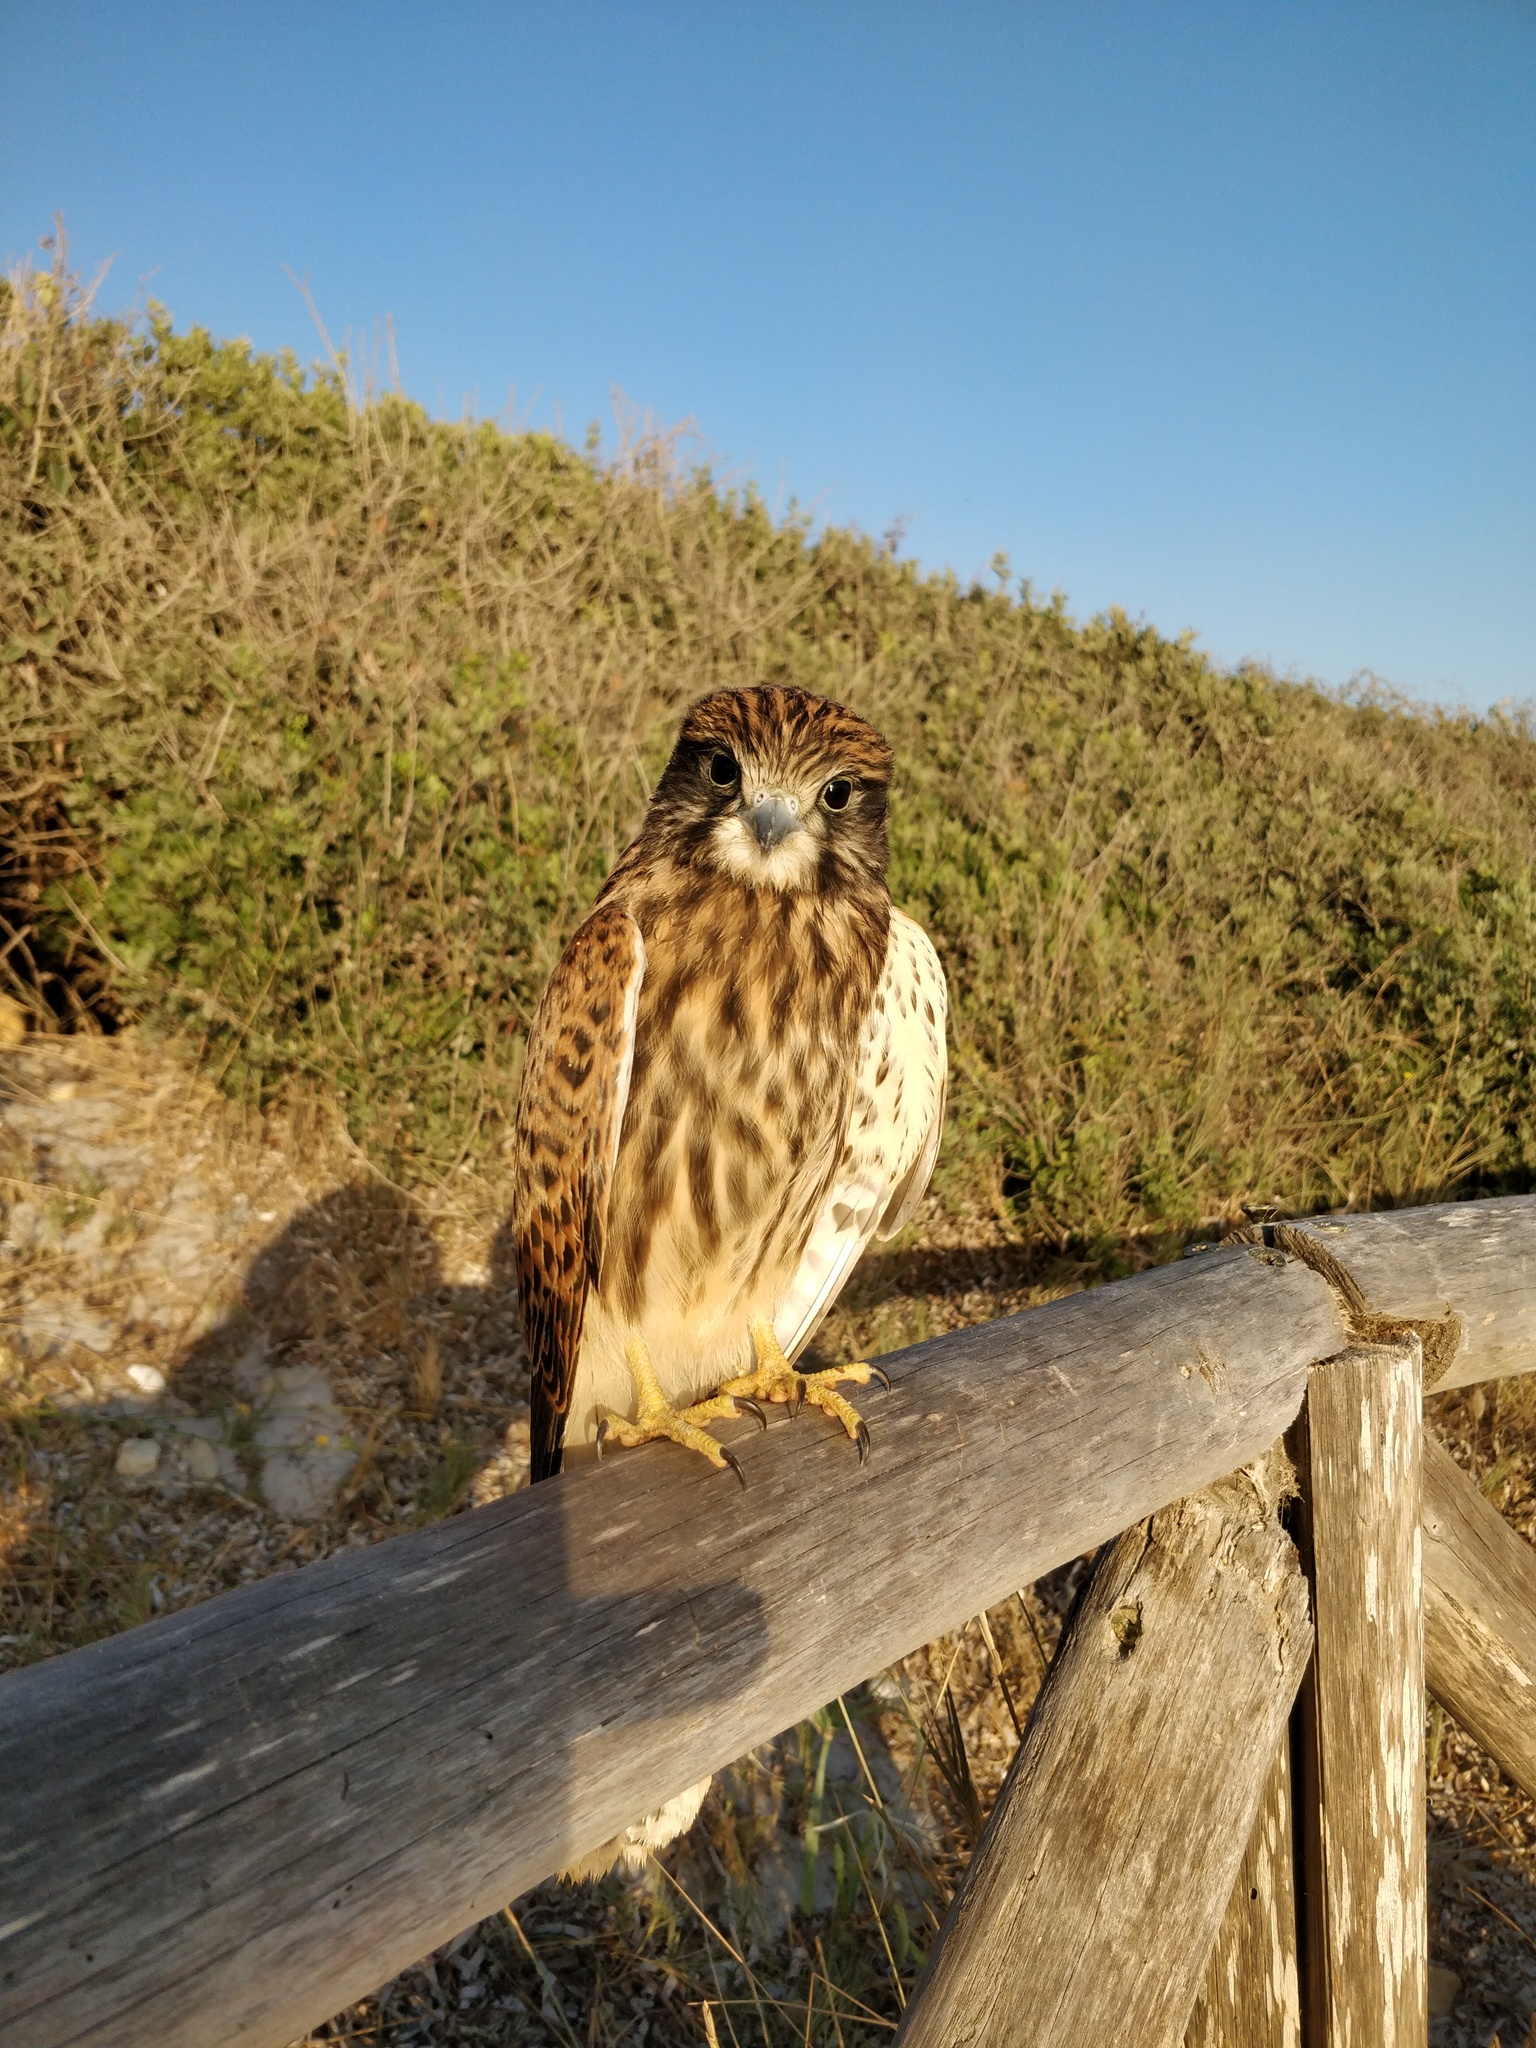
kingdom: Animalia
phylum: Chordata
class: Aves
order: Falconiformes
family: Falconidae
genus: Falco
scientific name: Falco tinnunculus
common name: Common kestrel
